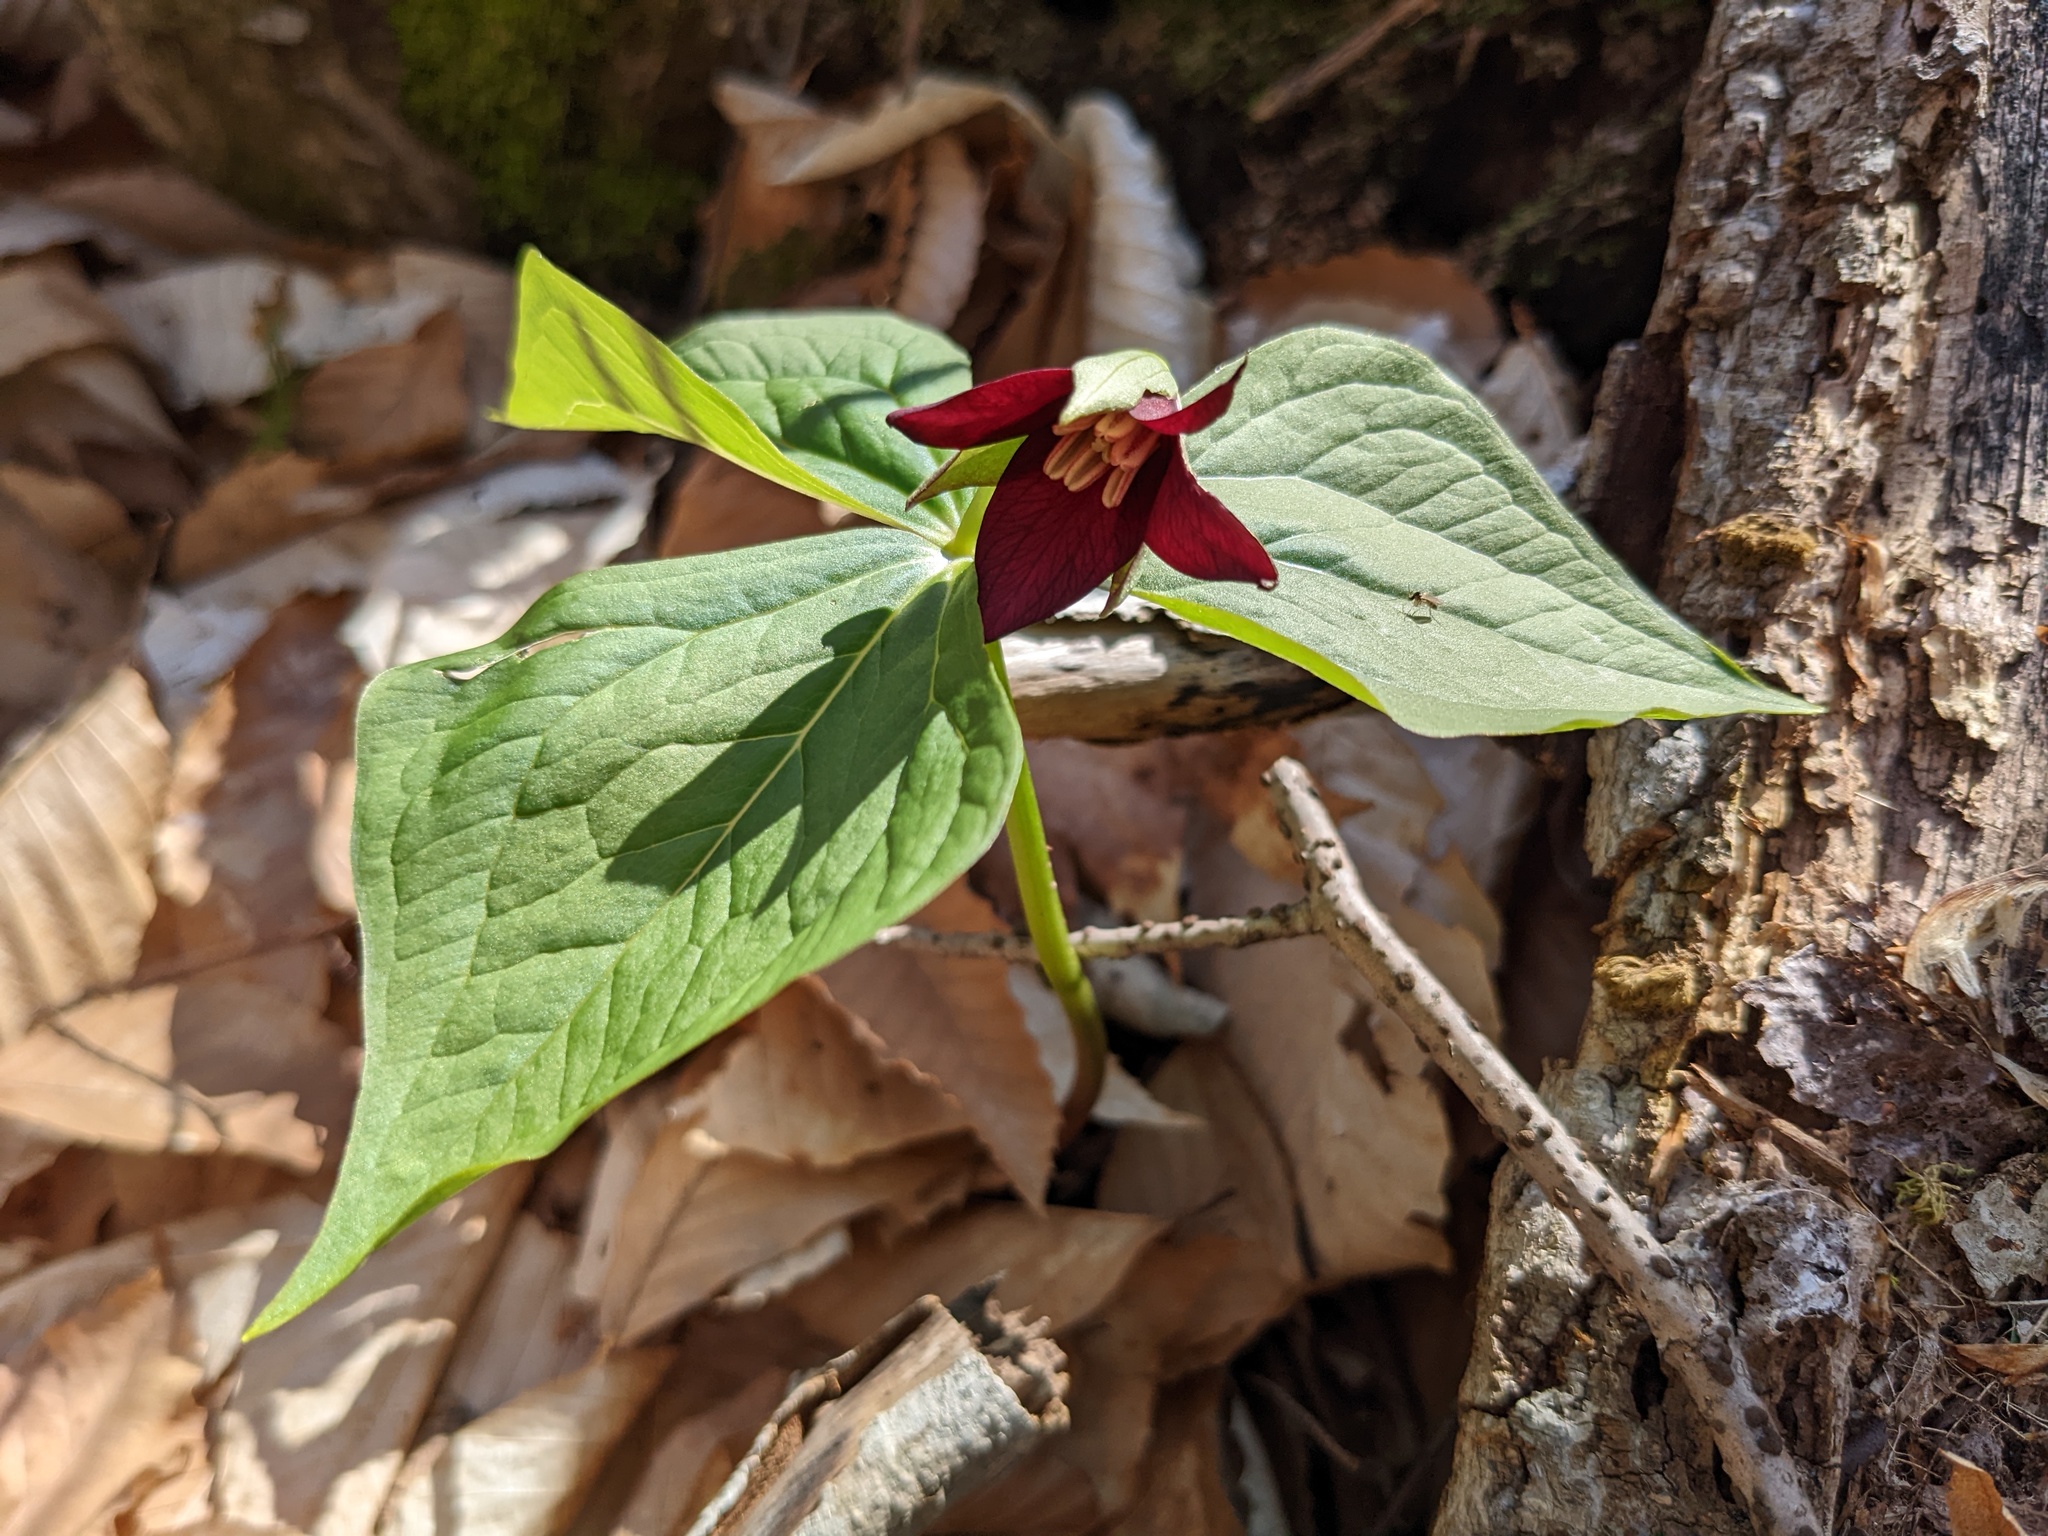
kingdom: Plantae
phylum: Tracheophyta
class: Liliopsida
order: Liliales
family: Melanthiaceae
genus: Trillium
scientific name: Trillium erectum
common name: Purple trillium
